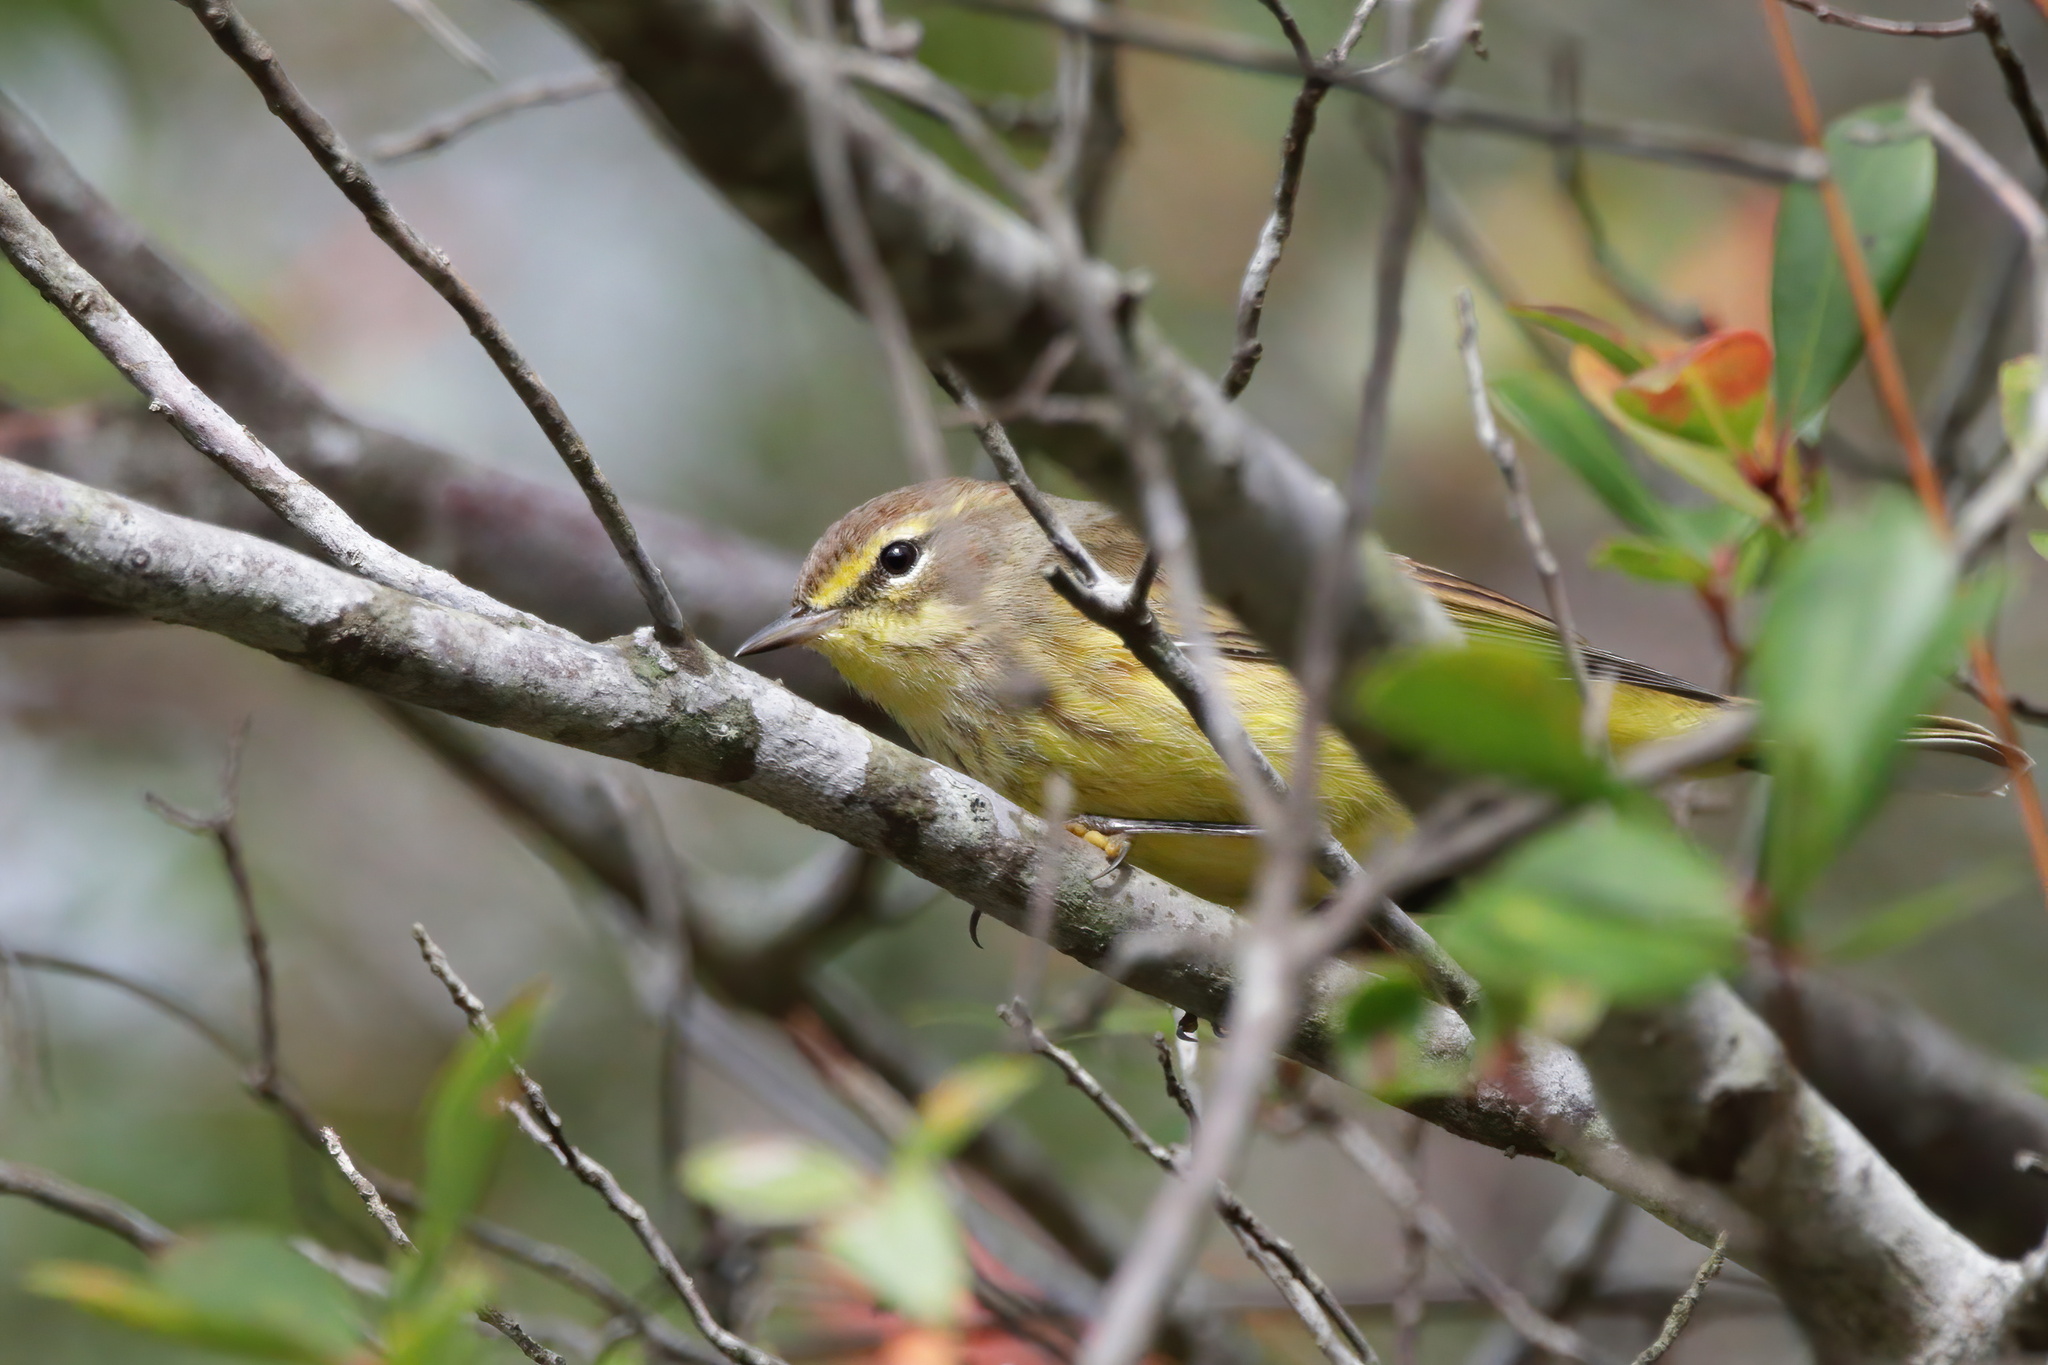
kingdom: Animalia
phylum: Chordata
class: Aves
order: Passeriformes
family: Parulidae
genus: Setophaga
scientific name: Setophaga palmarum
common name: Palm warbler
